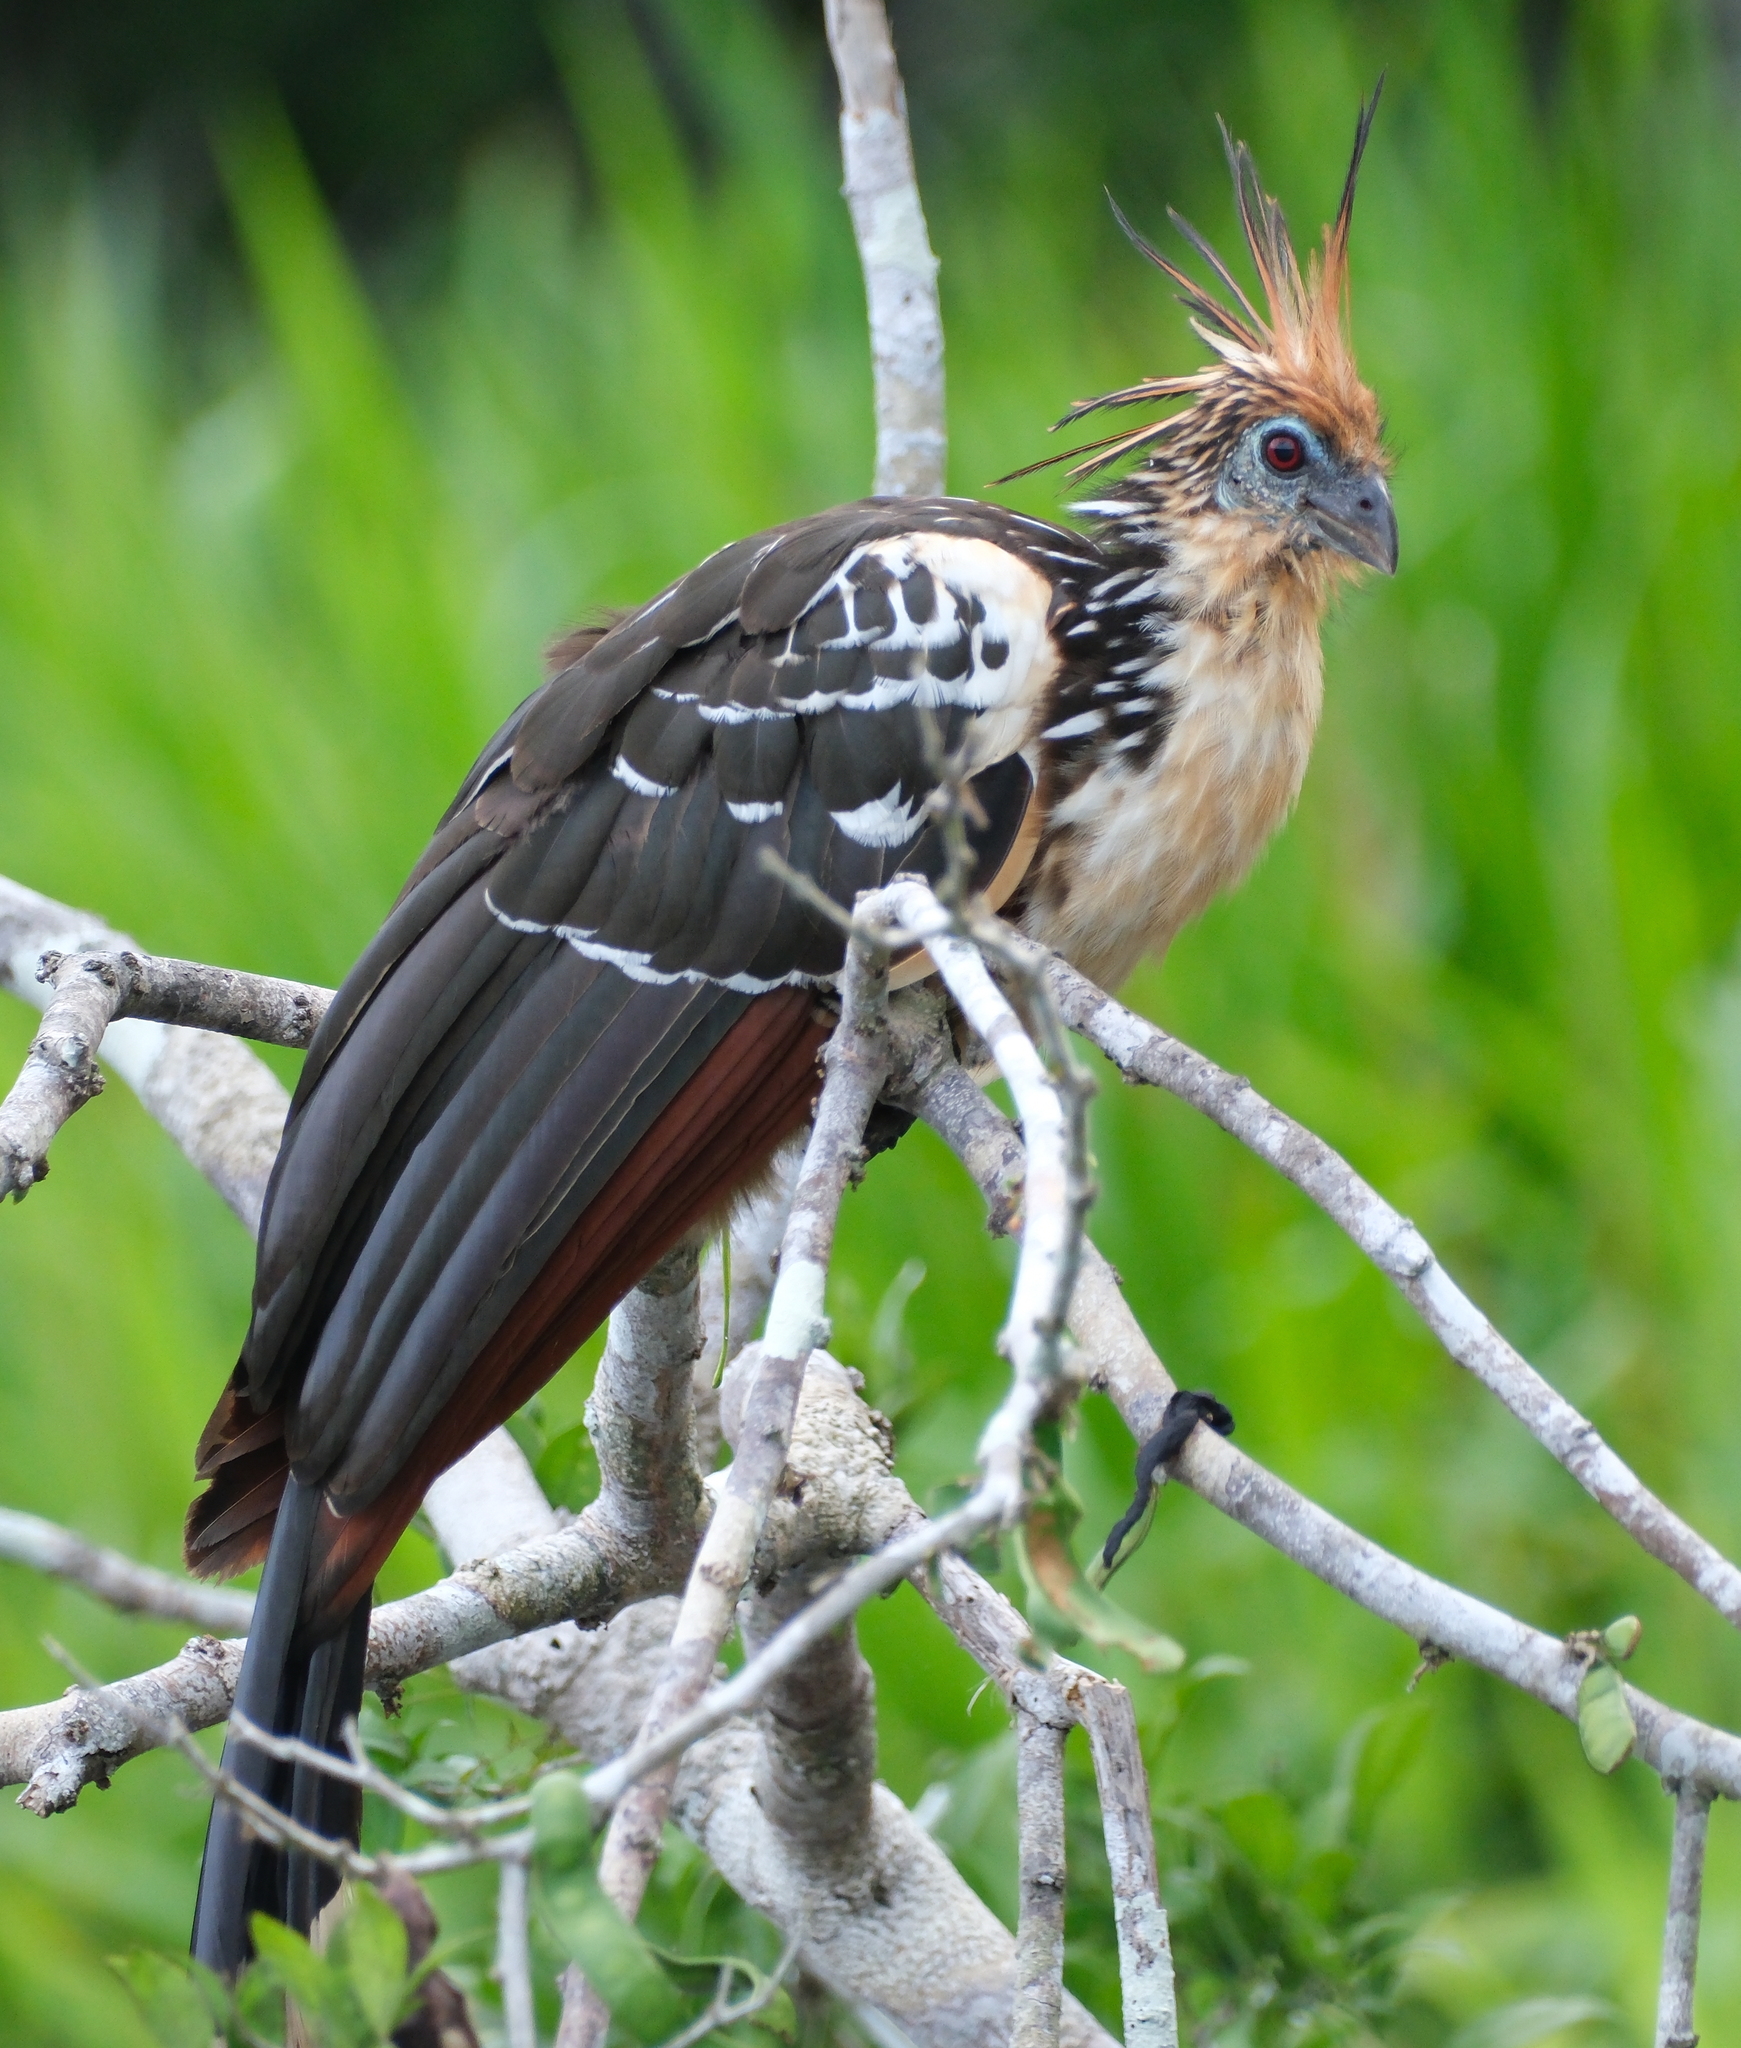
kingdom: Animalia
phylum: Chordata
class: Aves
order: Opisthocomiformes
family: Opisthocomidae
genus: Opisthocomus
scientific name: Opisthocomus hoazin
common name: Hoatzin
